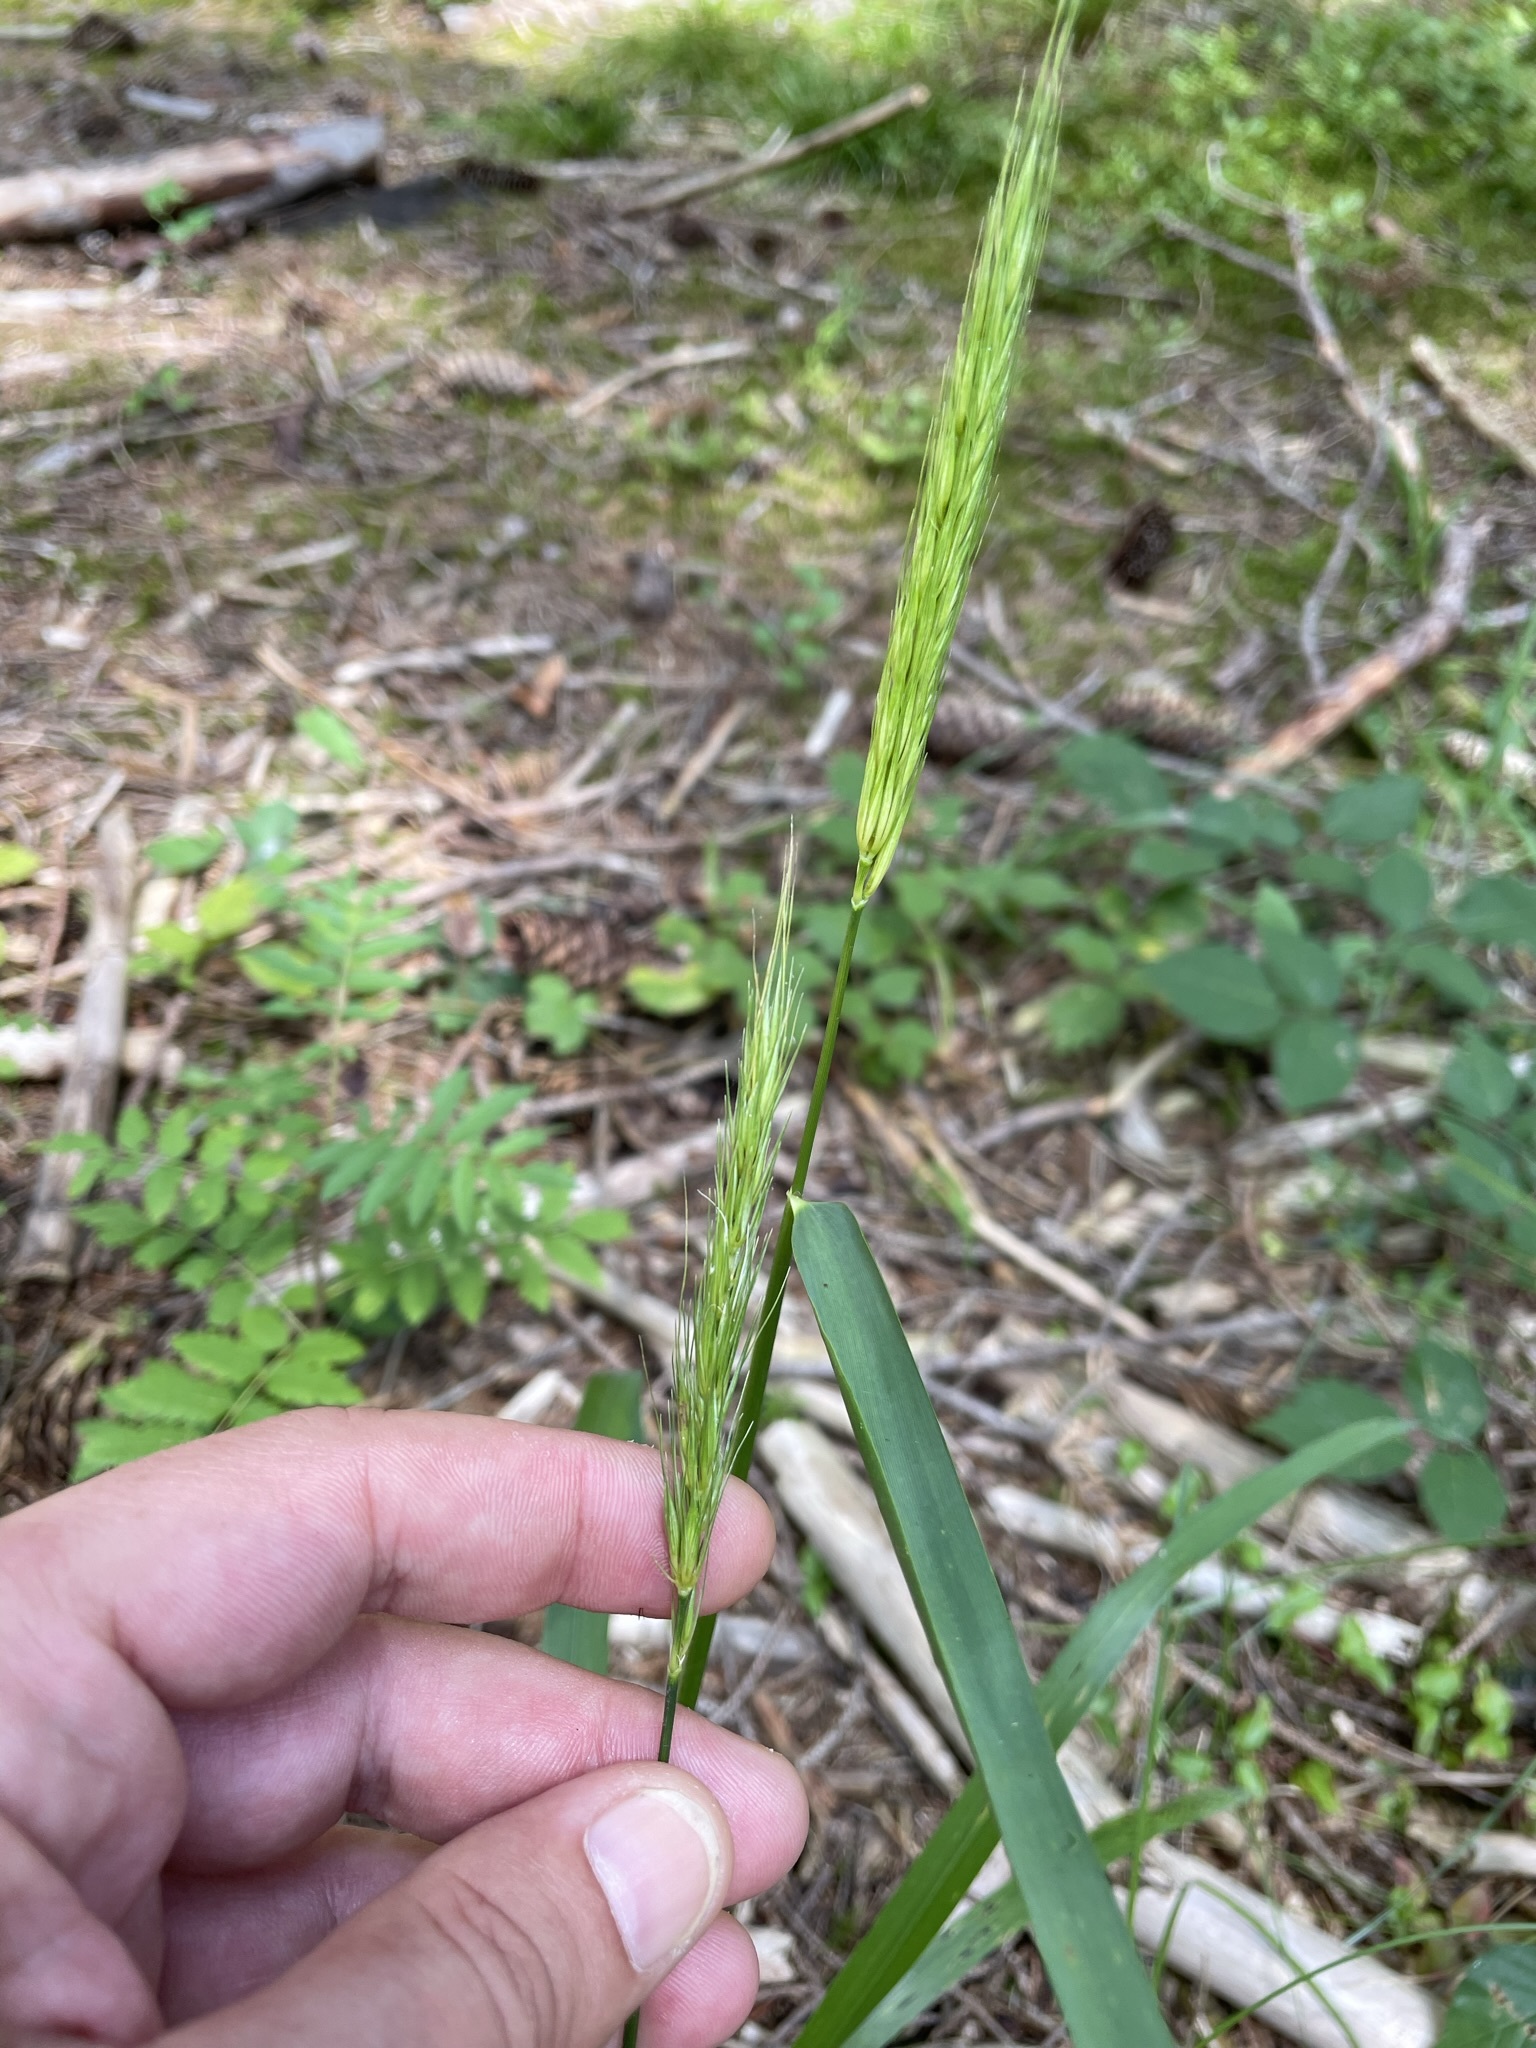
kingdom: Plantae
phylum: Tracheophyta
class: Liliopsida
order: Poales
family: Poaceae
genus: Hordelymus
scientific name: Hordelymus europaeus
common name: Wood-barley
